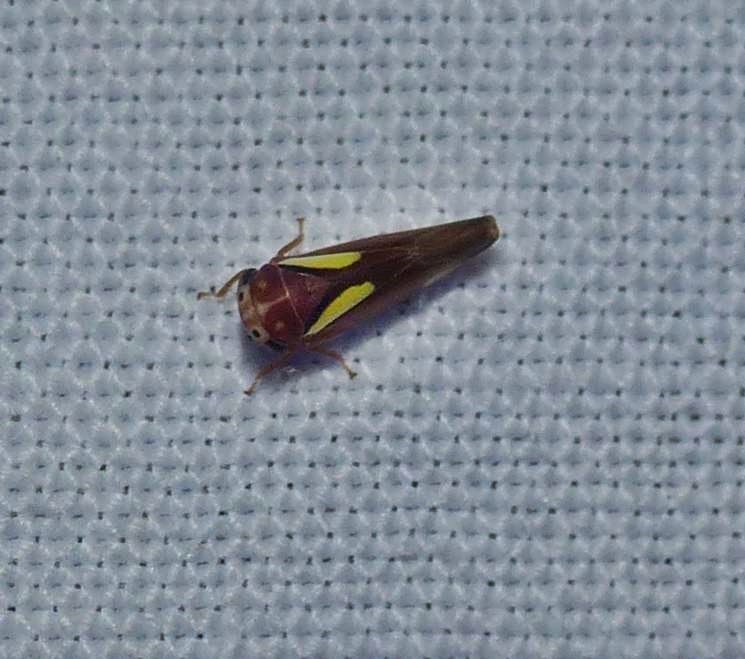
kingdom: Animalia
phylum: Arthropoda
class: Insecta
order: Hemiptera
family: Cicadellidae
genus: Balcanocerus
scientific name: Balcanocerus provancheri
